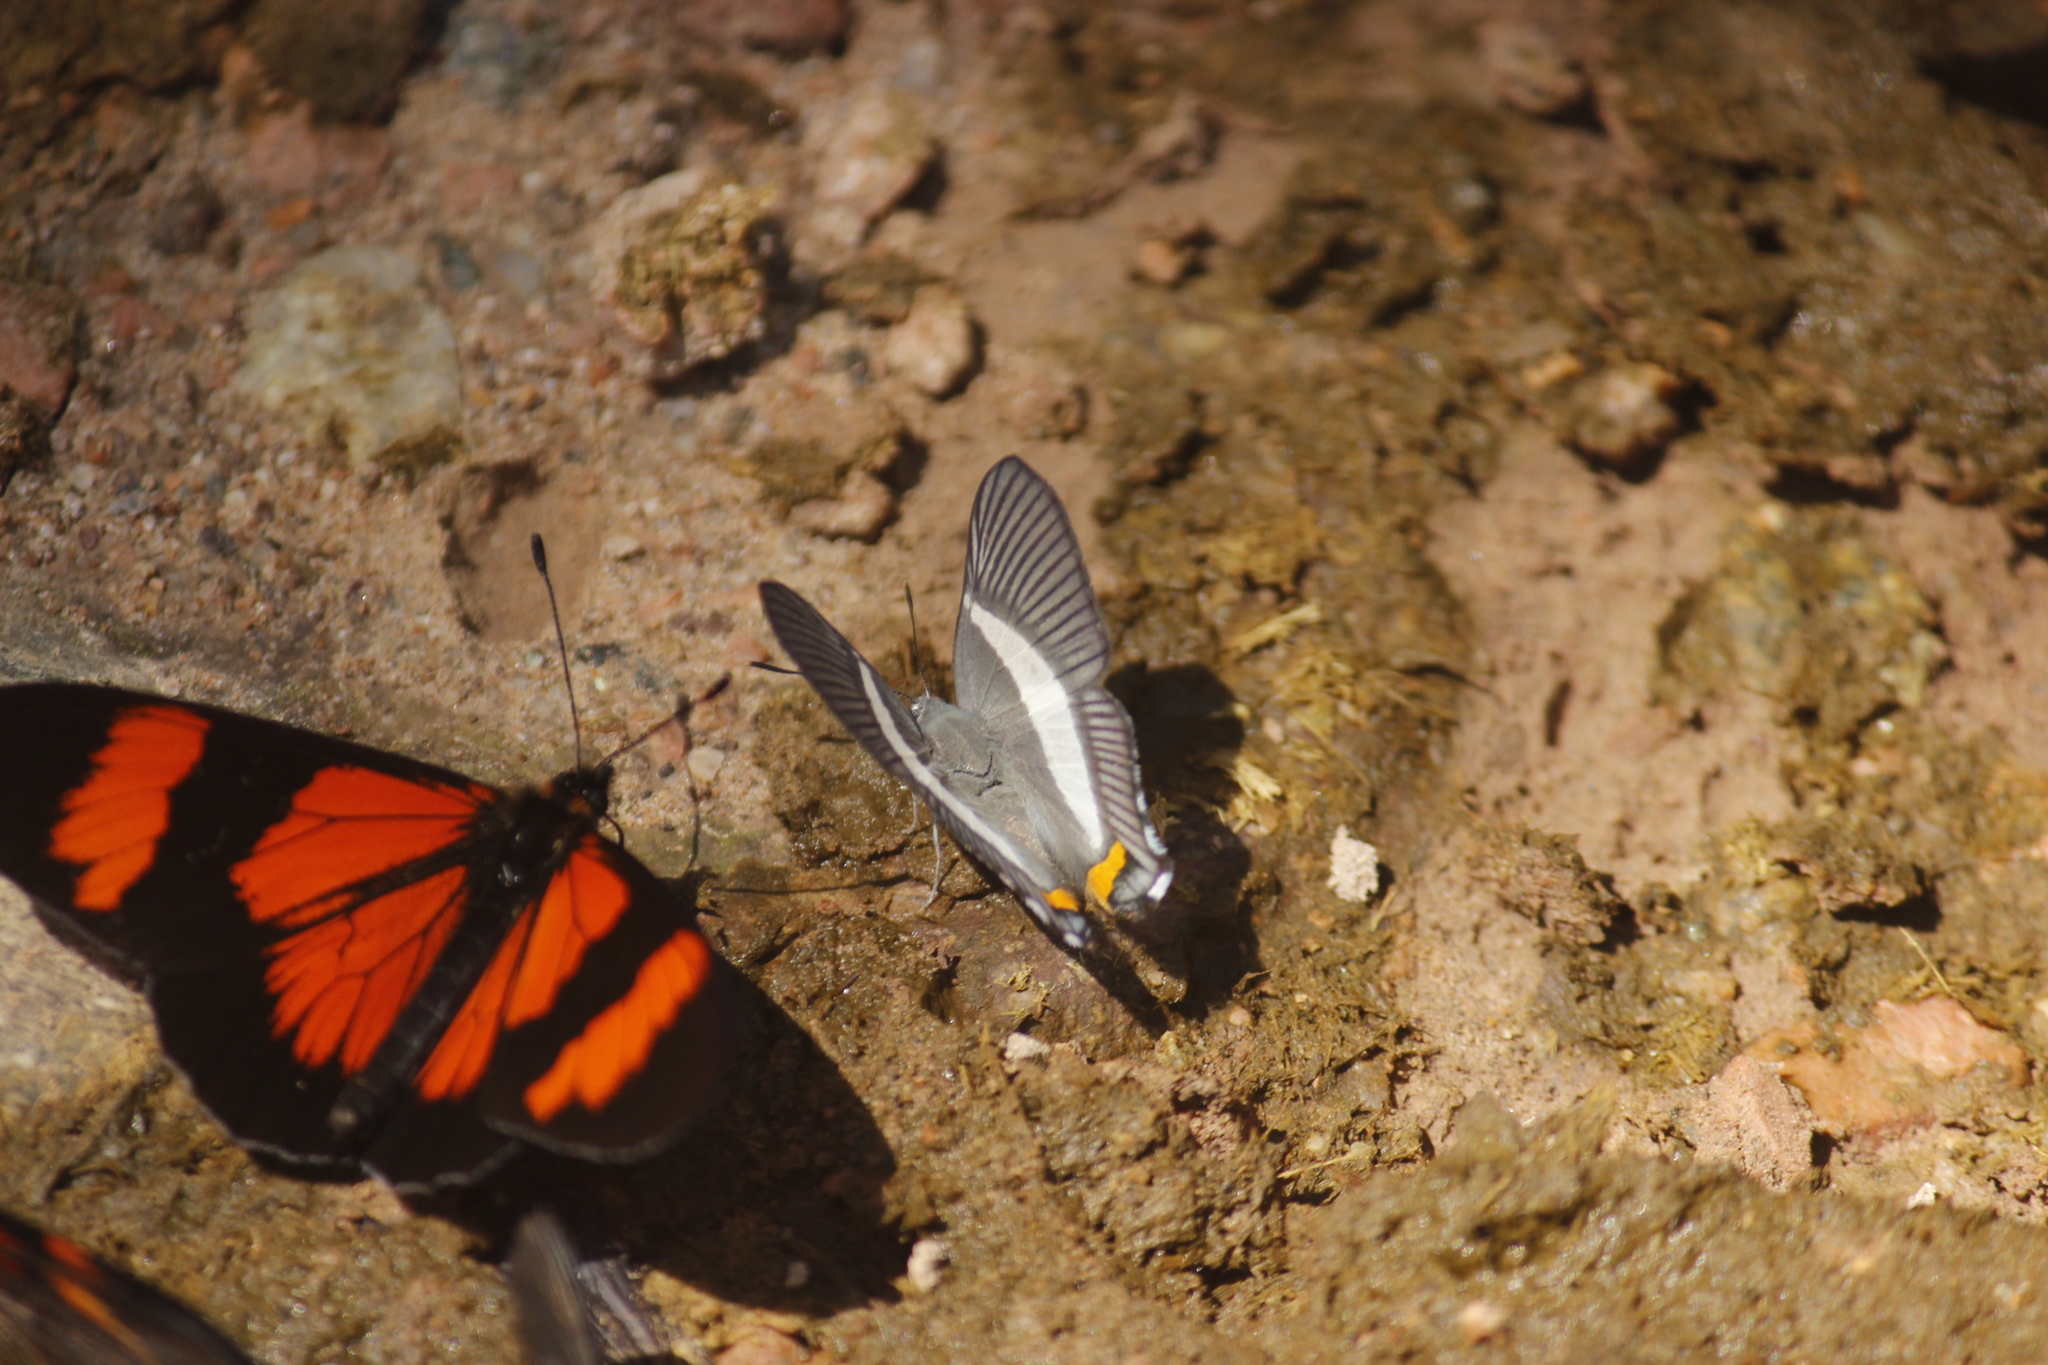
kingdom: Animalia
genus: Siseme
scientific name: Siseme neurodes
